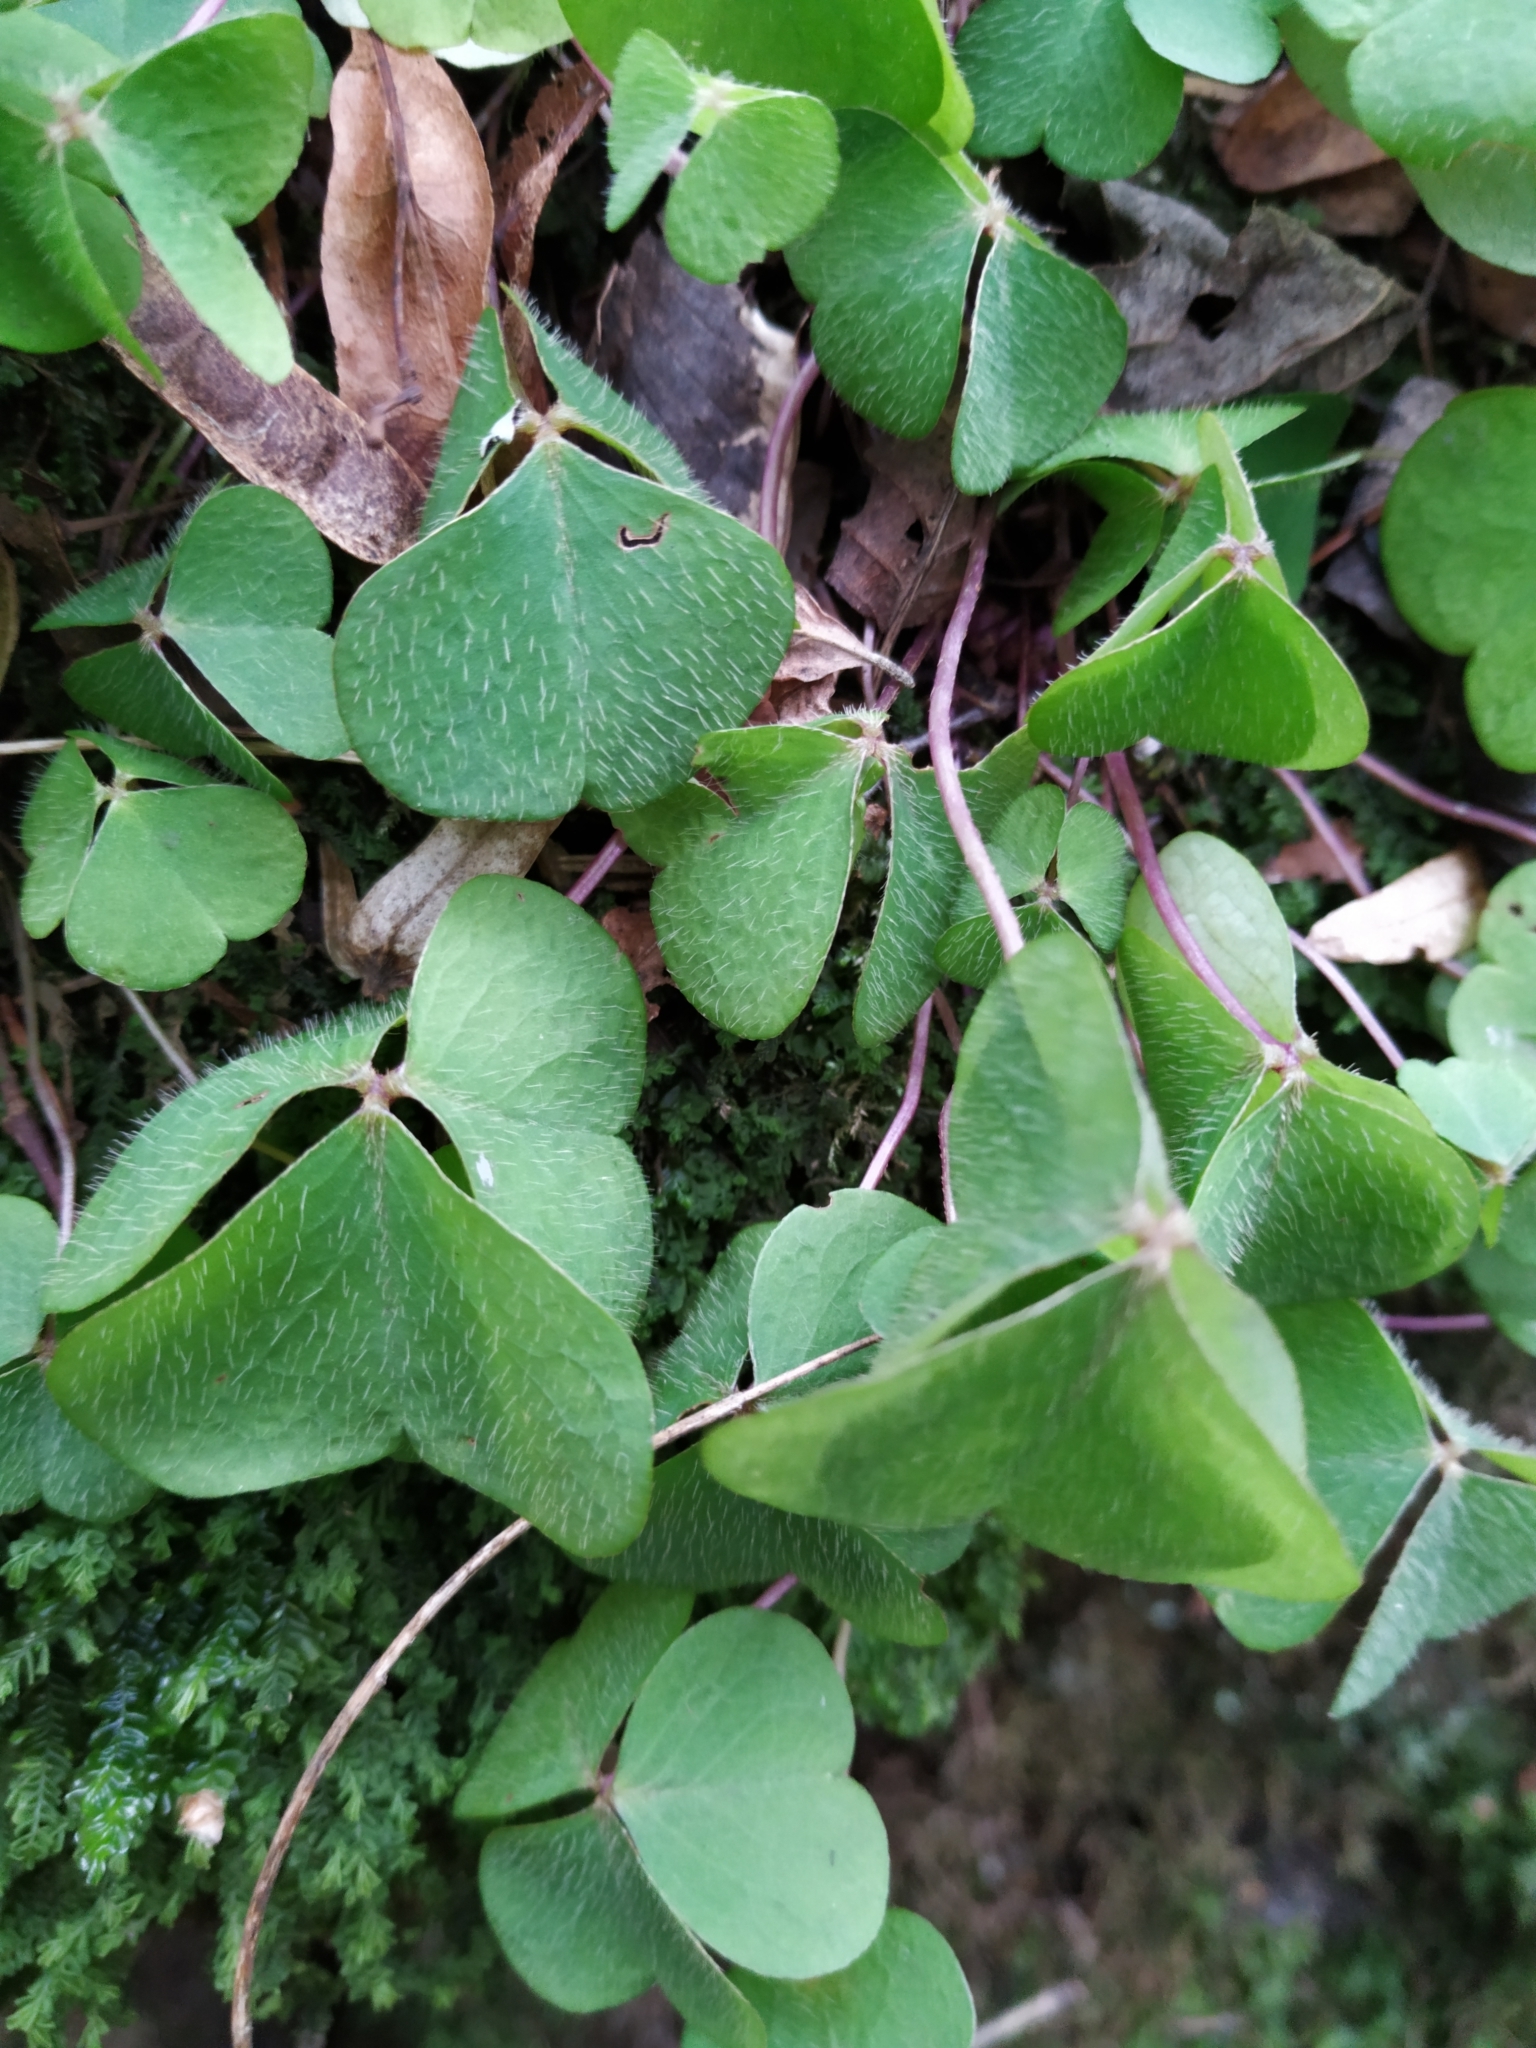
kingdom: Plantae
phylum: Tracheophyta
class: Magnoliopsida
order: Oxalidales
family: Oxalidaceae
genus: Oxalis
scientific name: Oxalis acetosella
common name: Wood-sorrel
